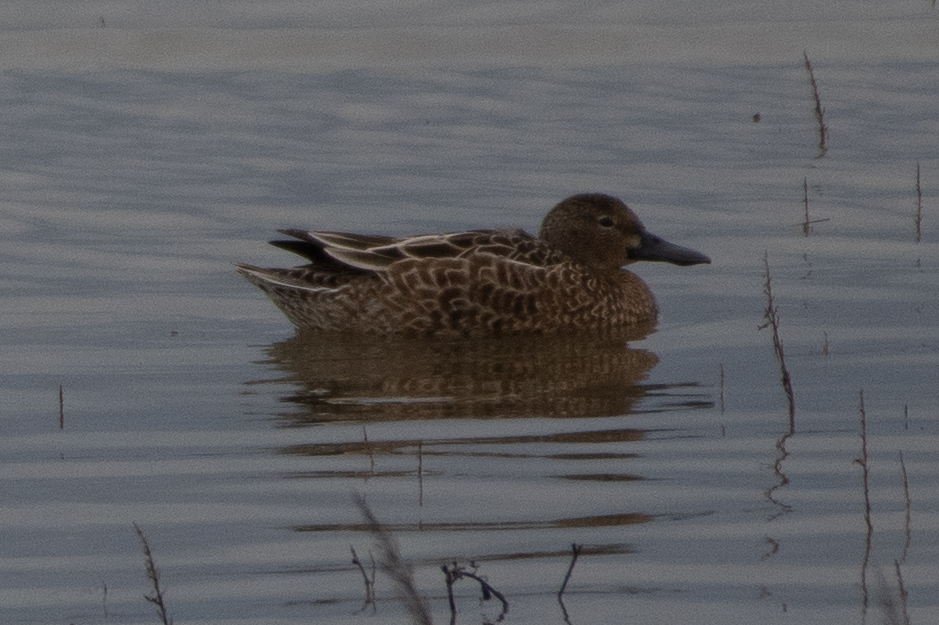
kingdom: Animalia
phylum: Chordata
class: Aves
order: Anseriformes
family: Anatidae
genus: Spatula
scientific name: Spatula cyanoptera
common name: Cinnamon teal
